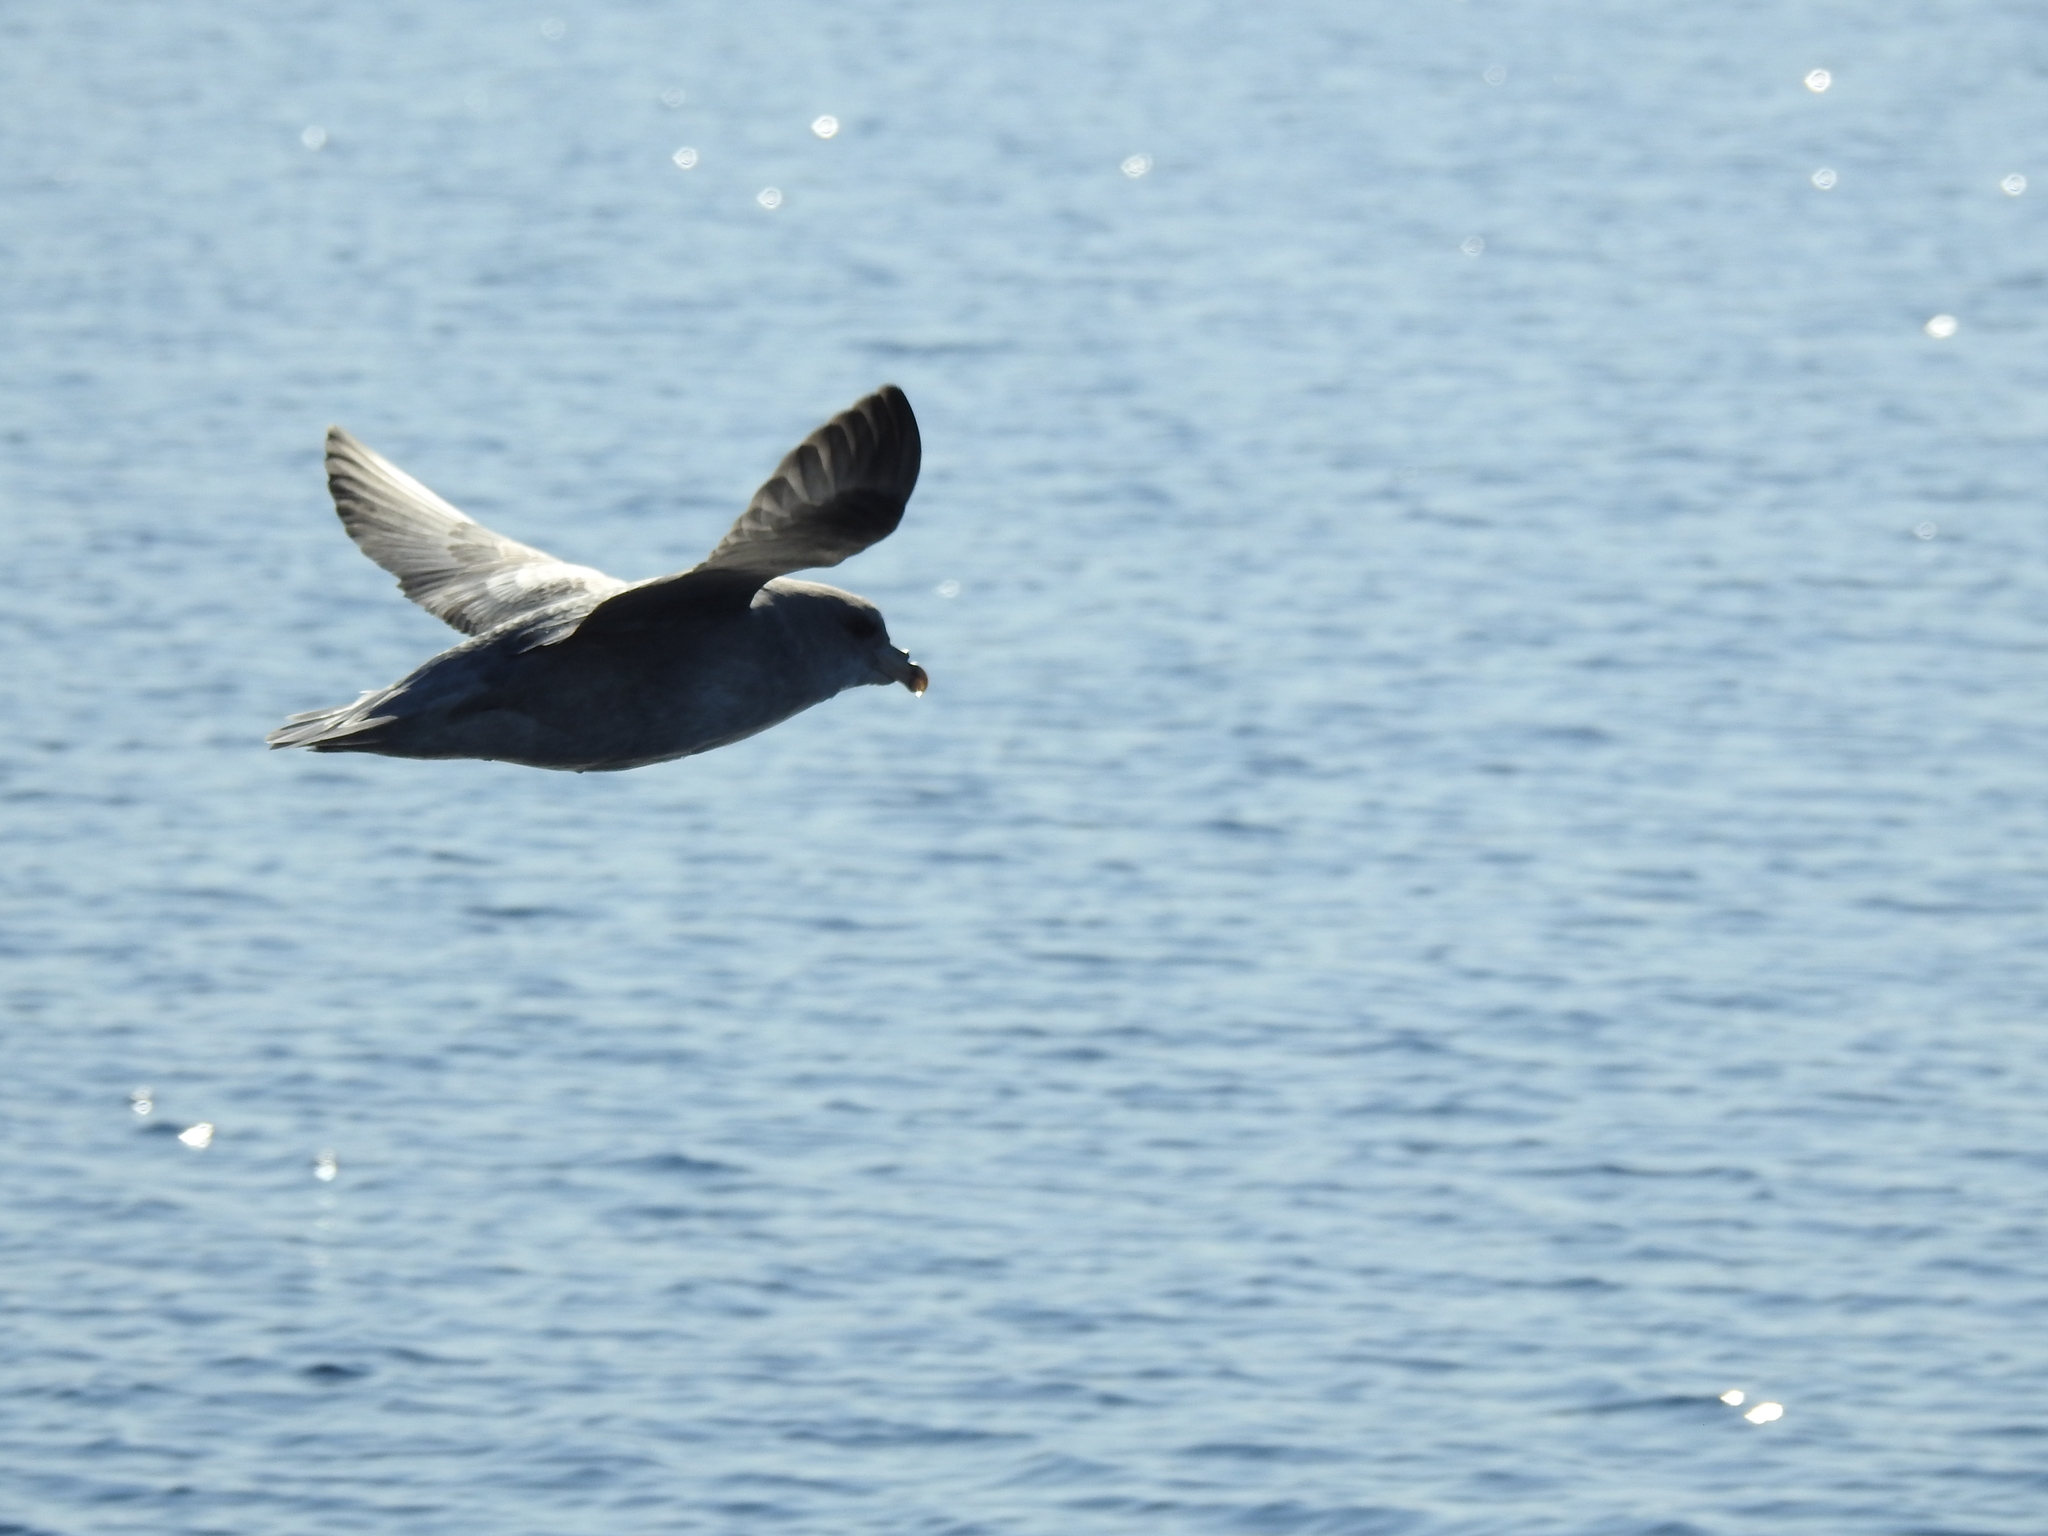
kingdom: Animalia
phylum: Chordata
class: Aves
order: Procellariiformes
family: Procellariidae
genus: Fulmarus
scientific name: Fulmarus glacialis
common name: Northern fulmar
